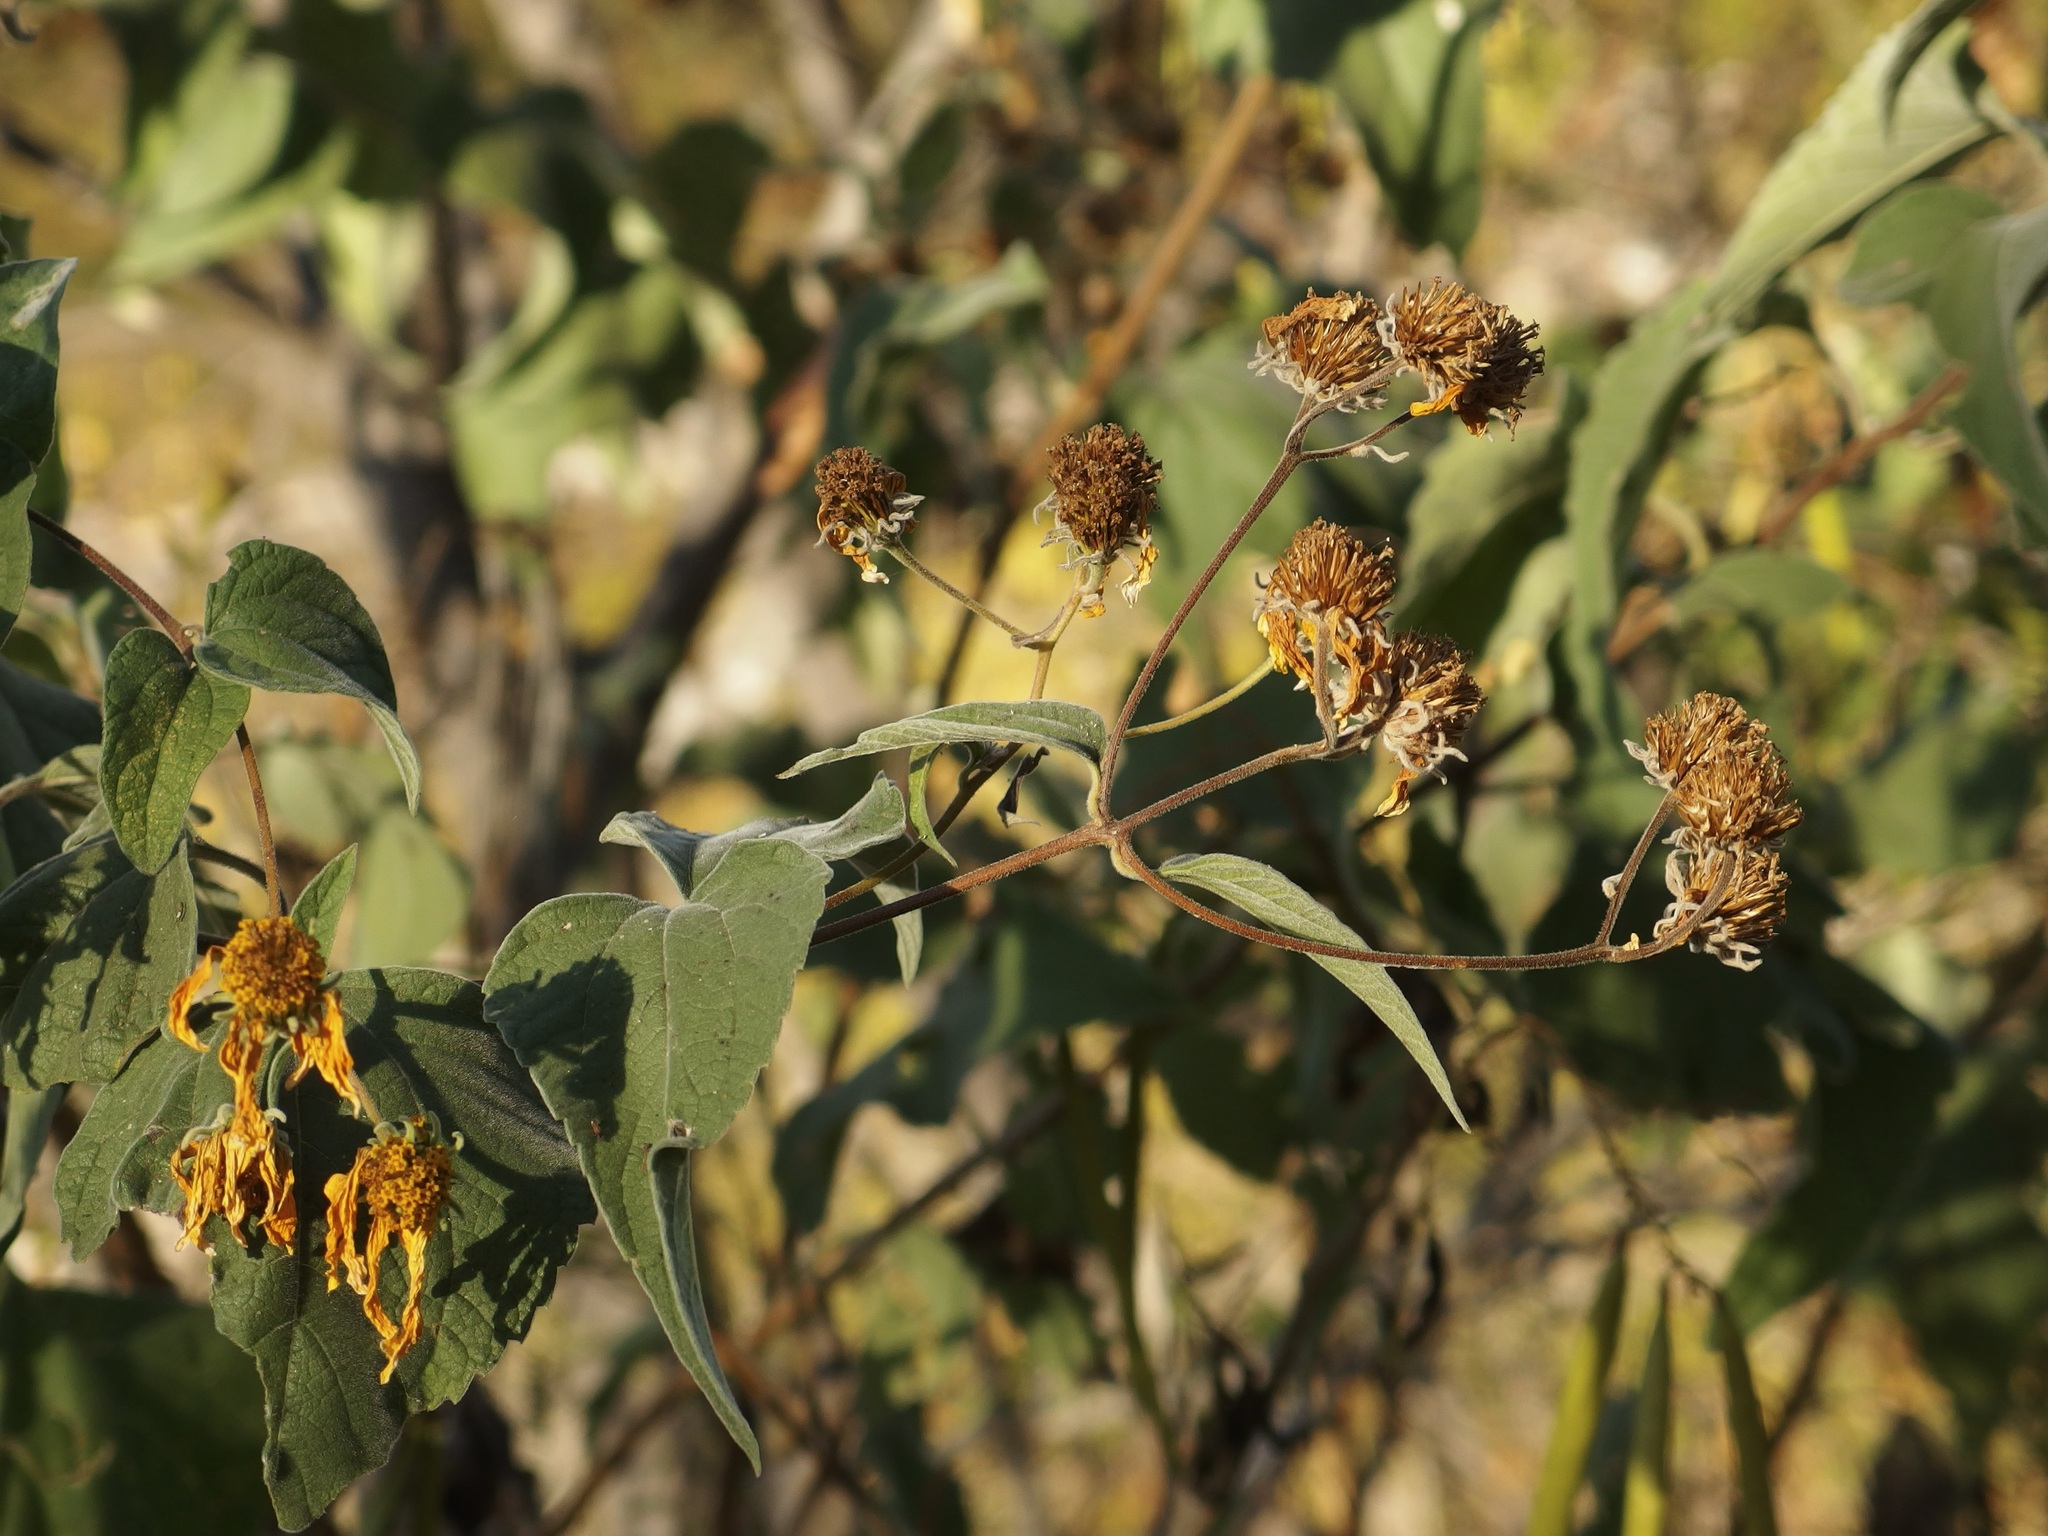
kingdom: Plantae
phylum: Tracheophyta
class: Magnoliopsida
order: Asterales
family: Asteraceae
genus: Bahiopsis
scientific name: Bahiopsis tomentosa
